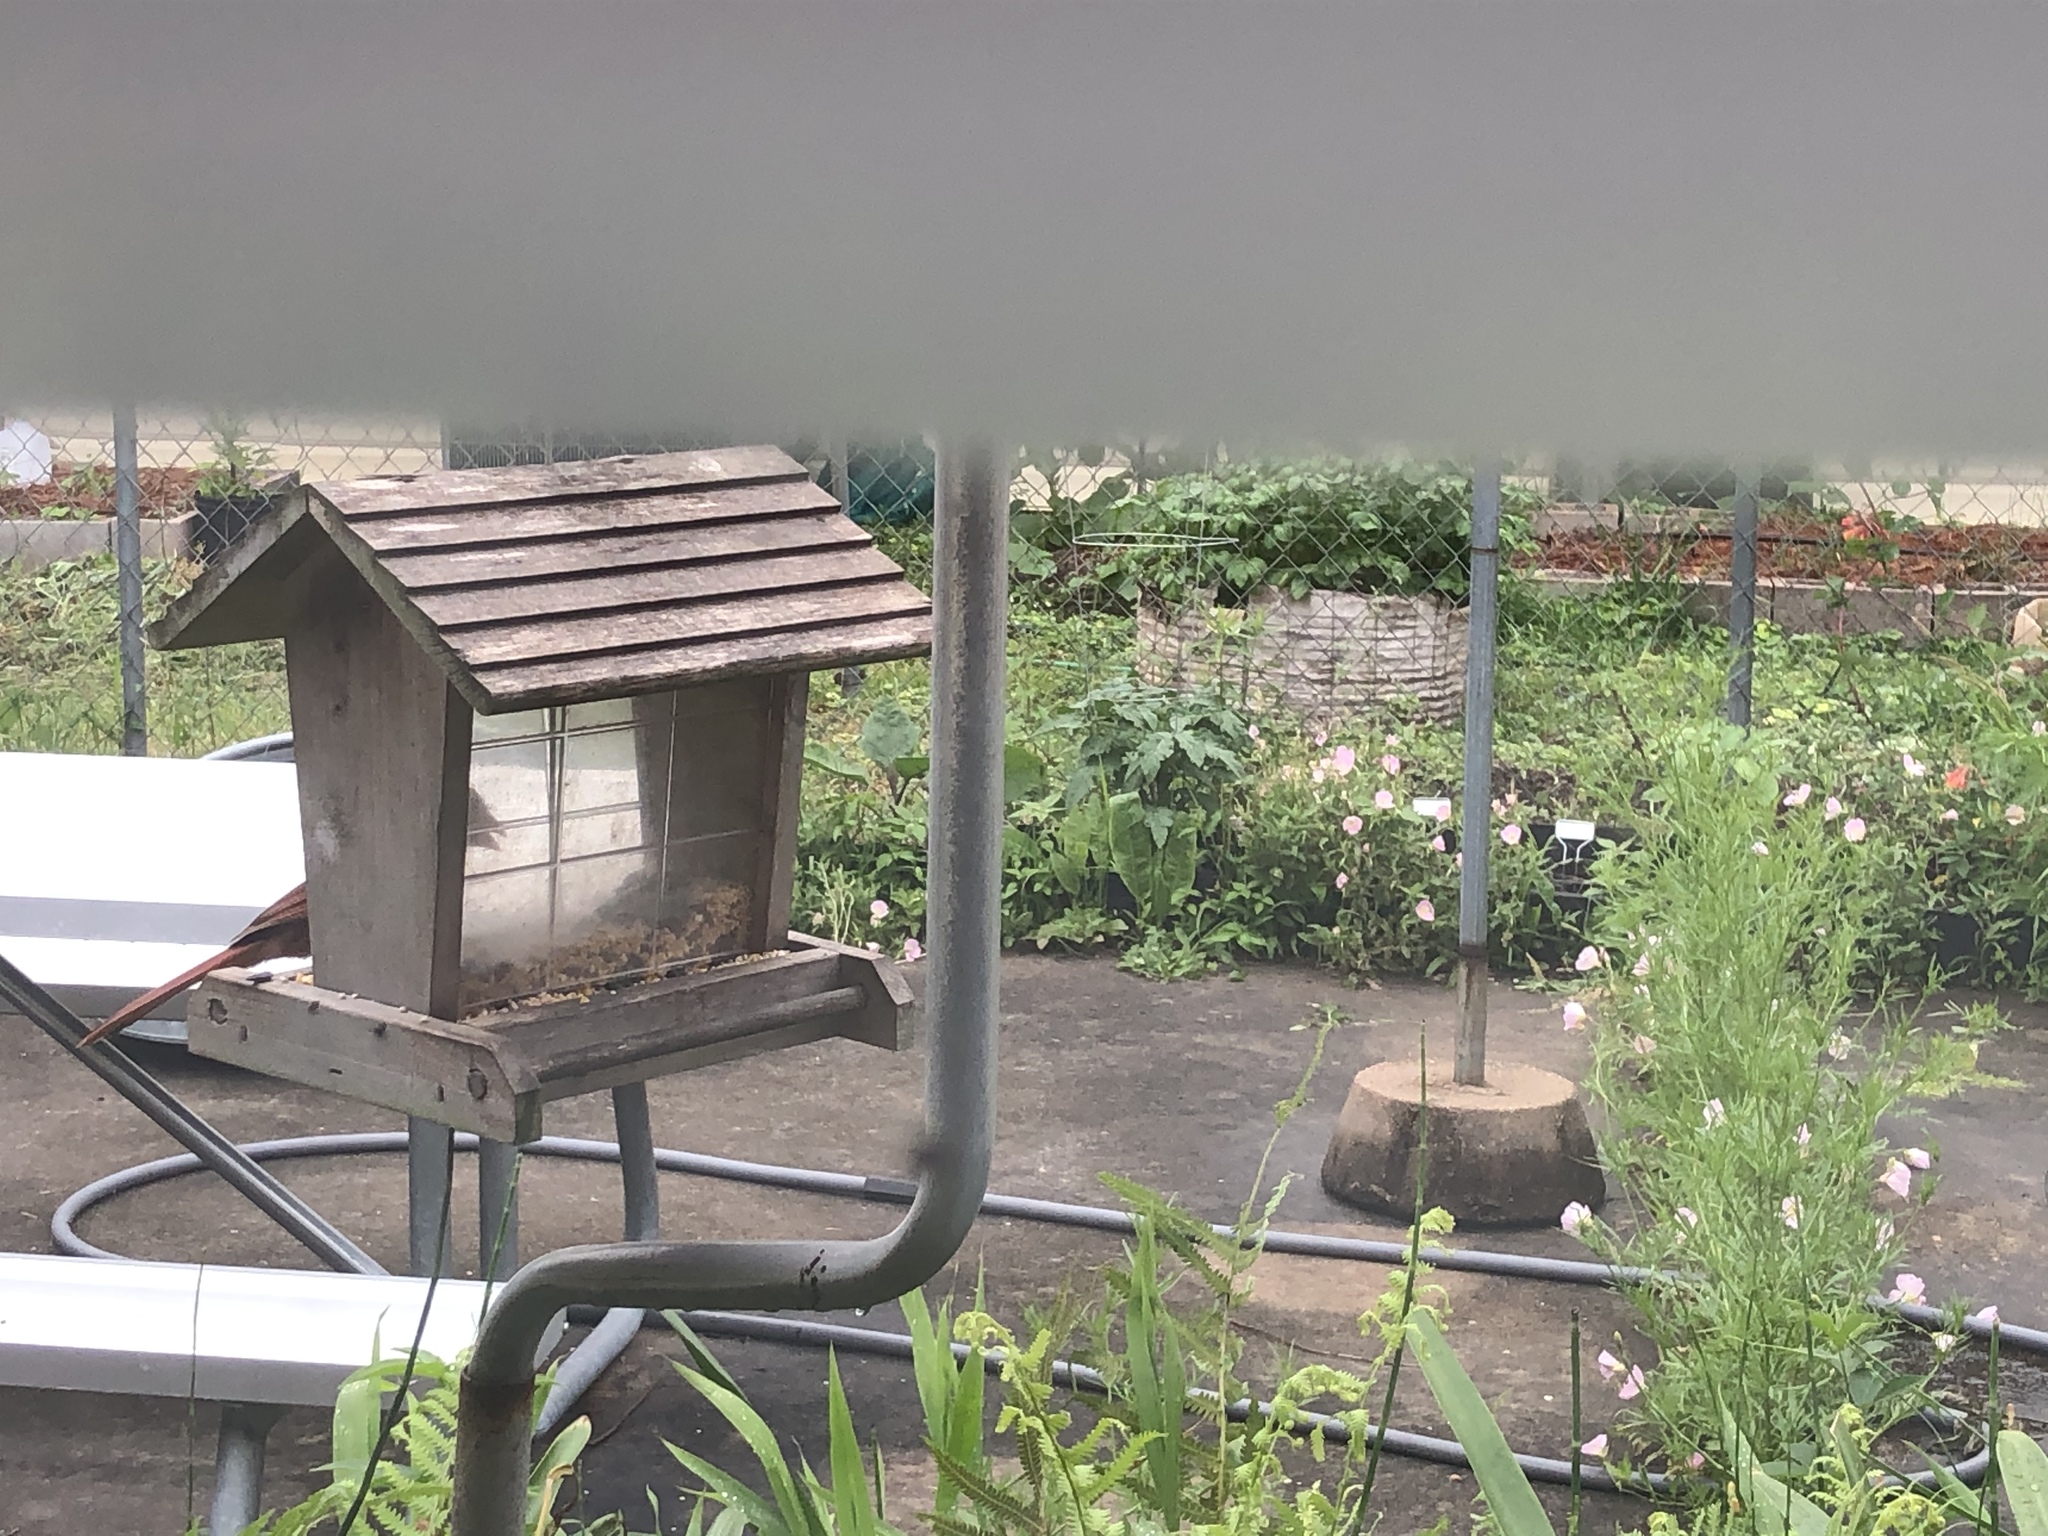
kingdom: Animalia
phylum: Chordata
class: Aves
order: Passeriformes
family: Cardinalidae
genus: Cardinalis
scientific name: Cardinalis cardinalis
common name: Northern cardinal
